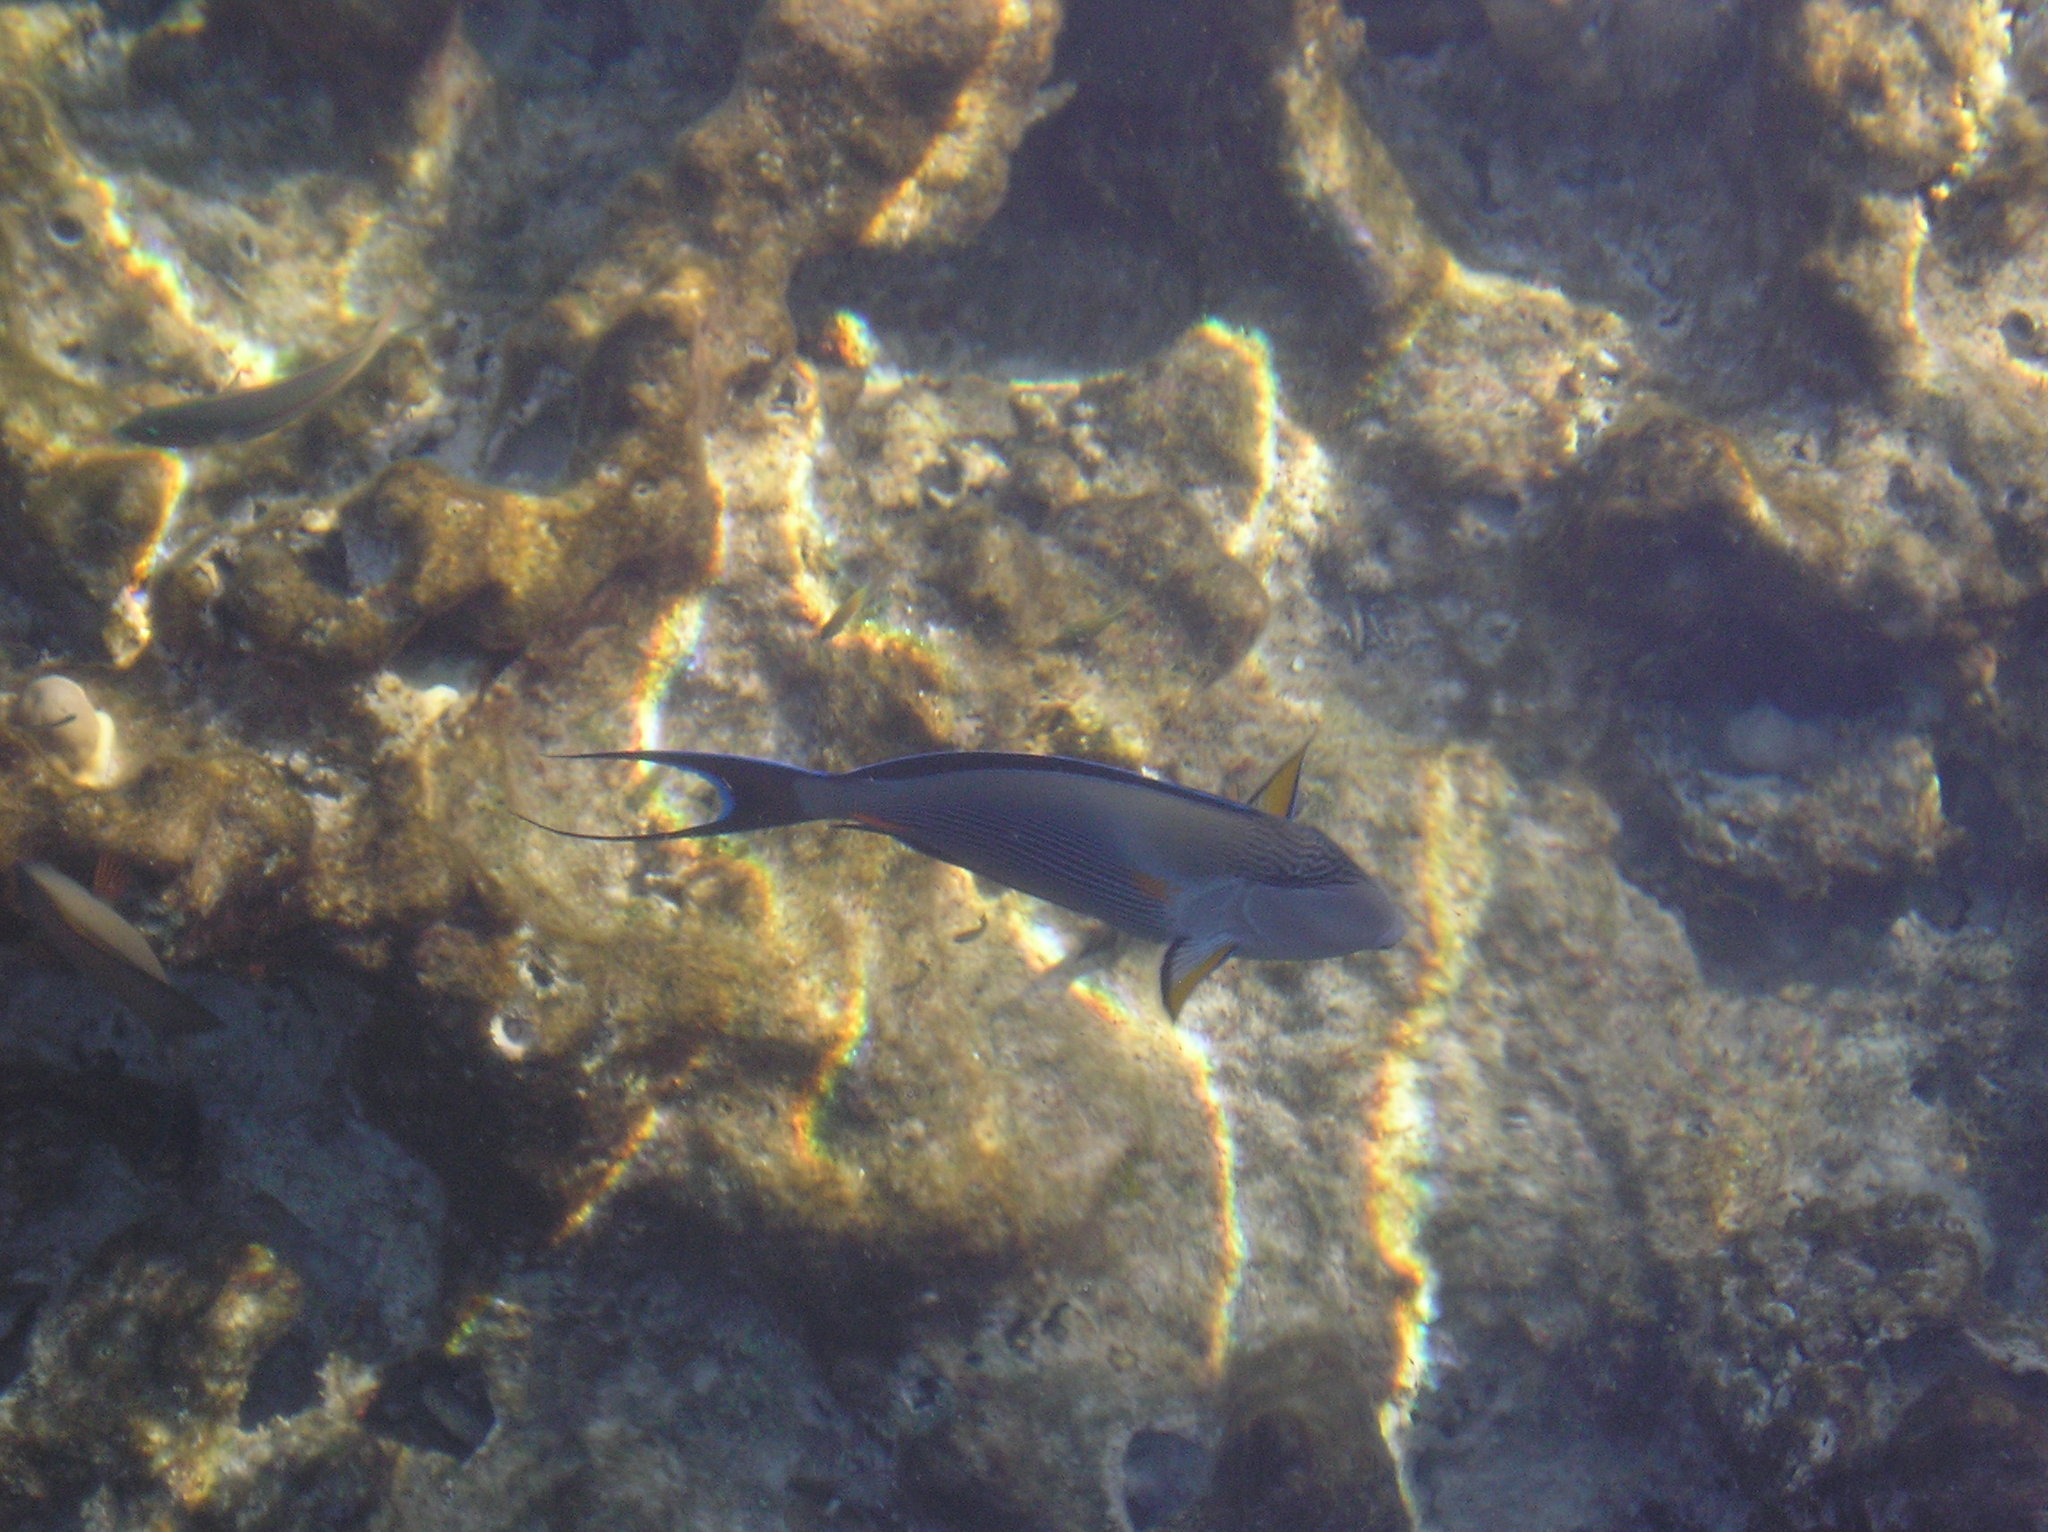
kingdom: Animalia
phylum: Chordata
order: Perciformes
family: Acanthuridae
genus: Acanthurus
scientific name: Acanthurus sohal
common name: Red sea surgeonfish
